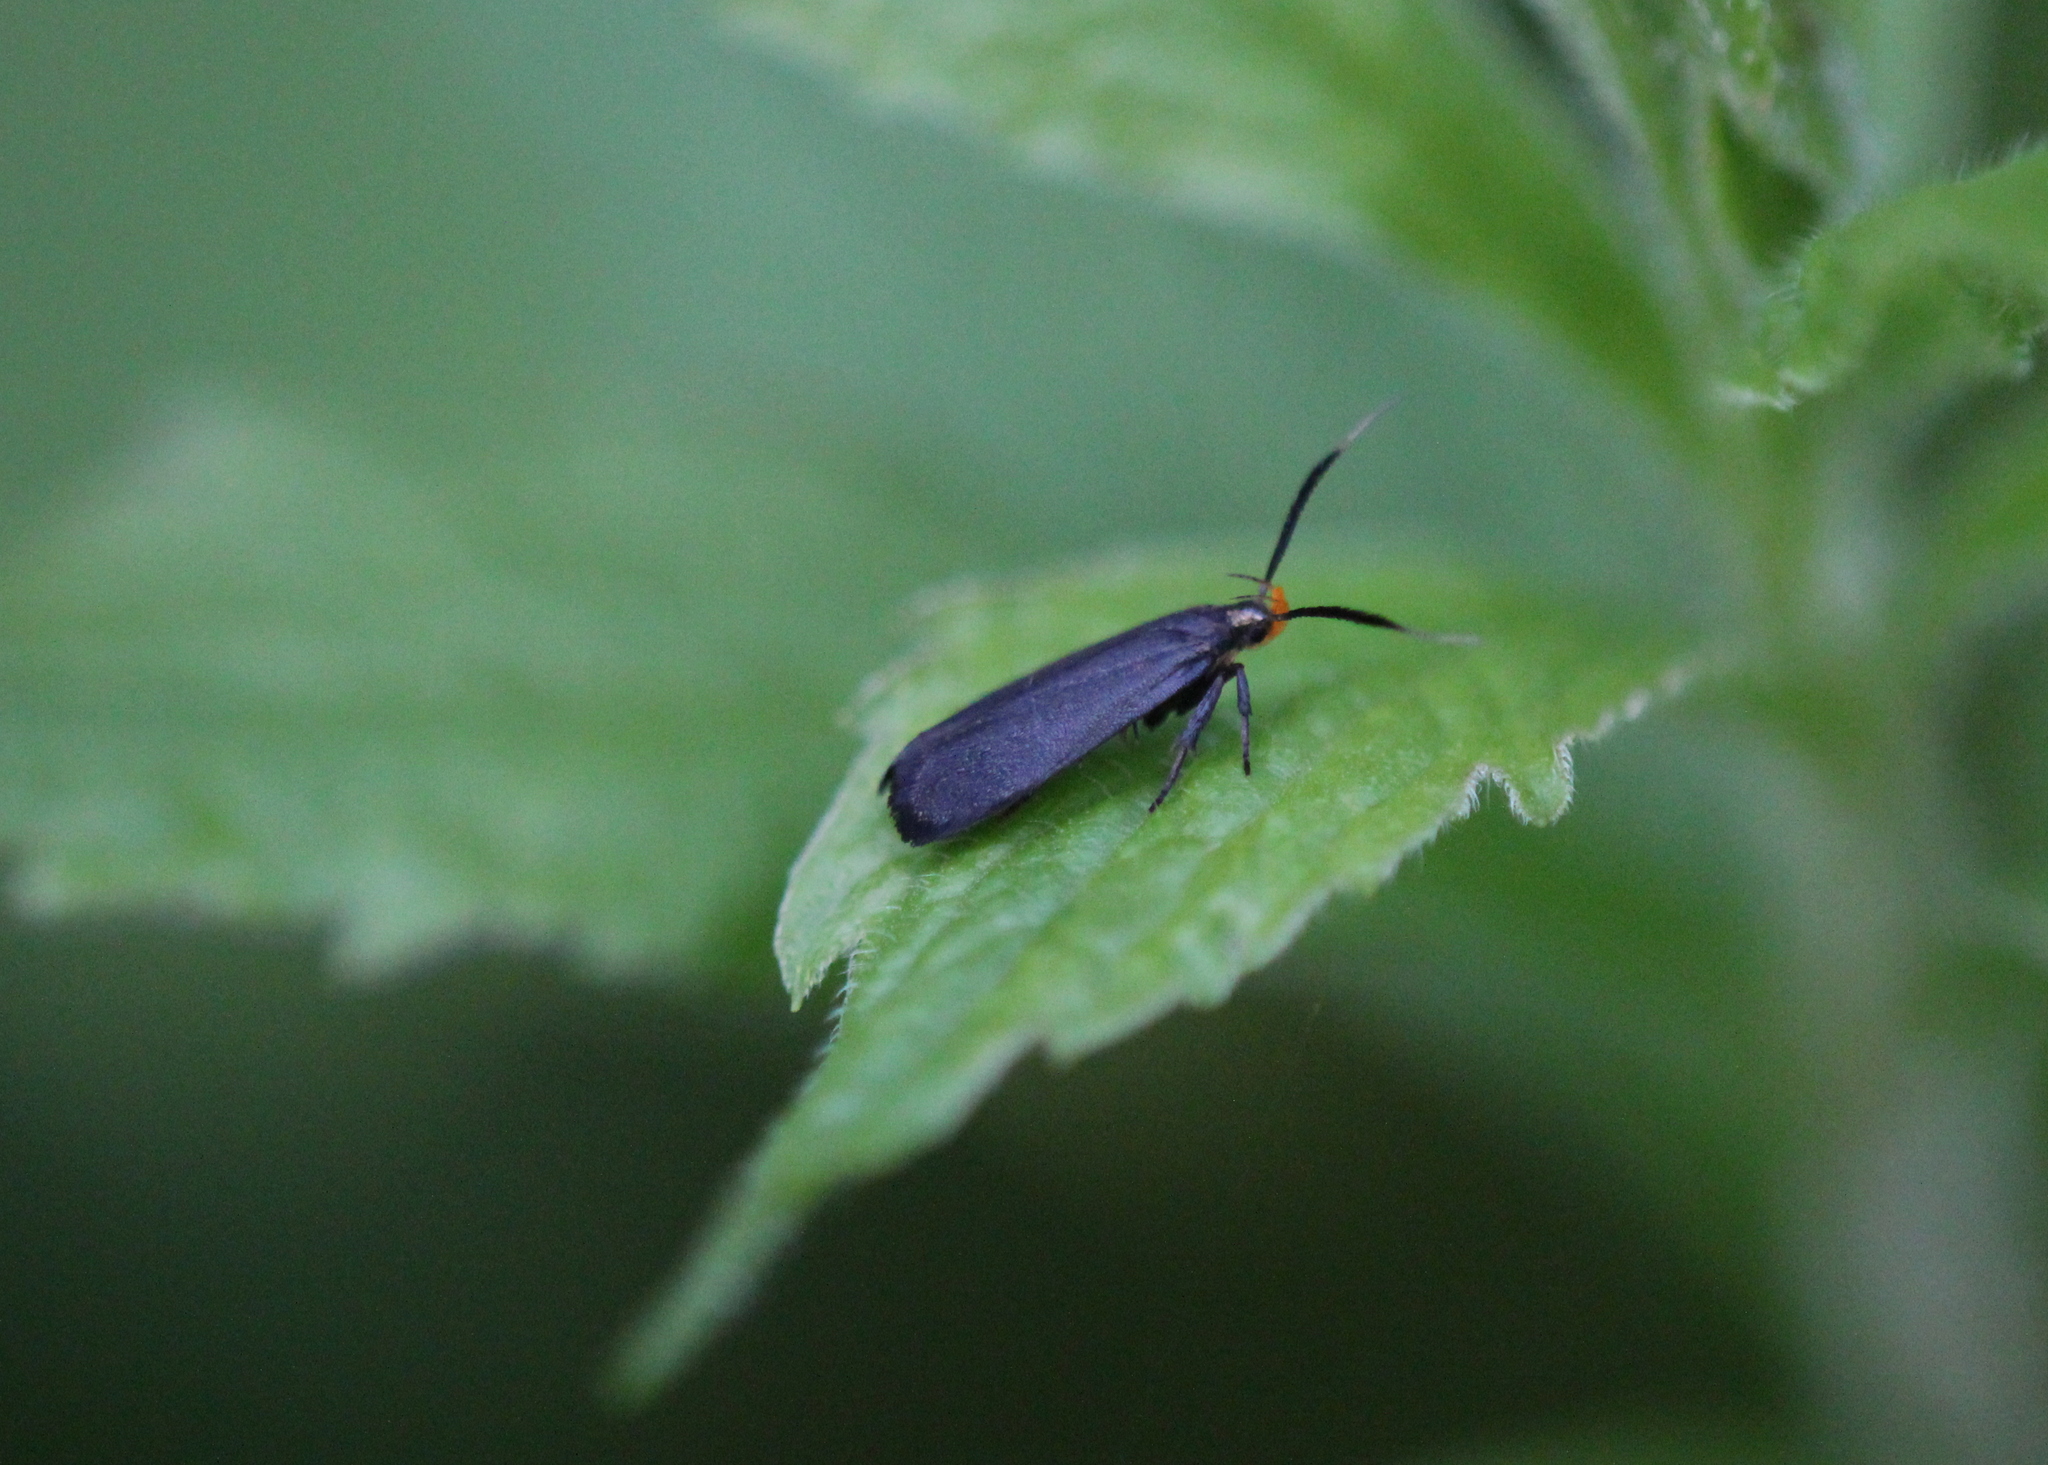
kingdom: Animalia
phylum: Arthropoda
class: Insecta
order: Lepidoptera
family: Gelechiidae
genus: Dichomeris
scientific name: Dichomeris nonstrigella
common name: Little devil moth
